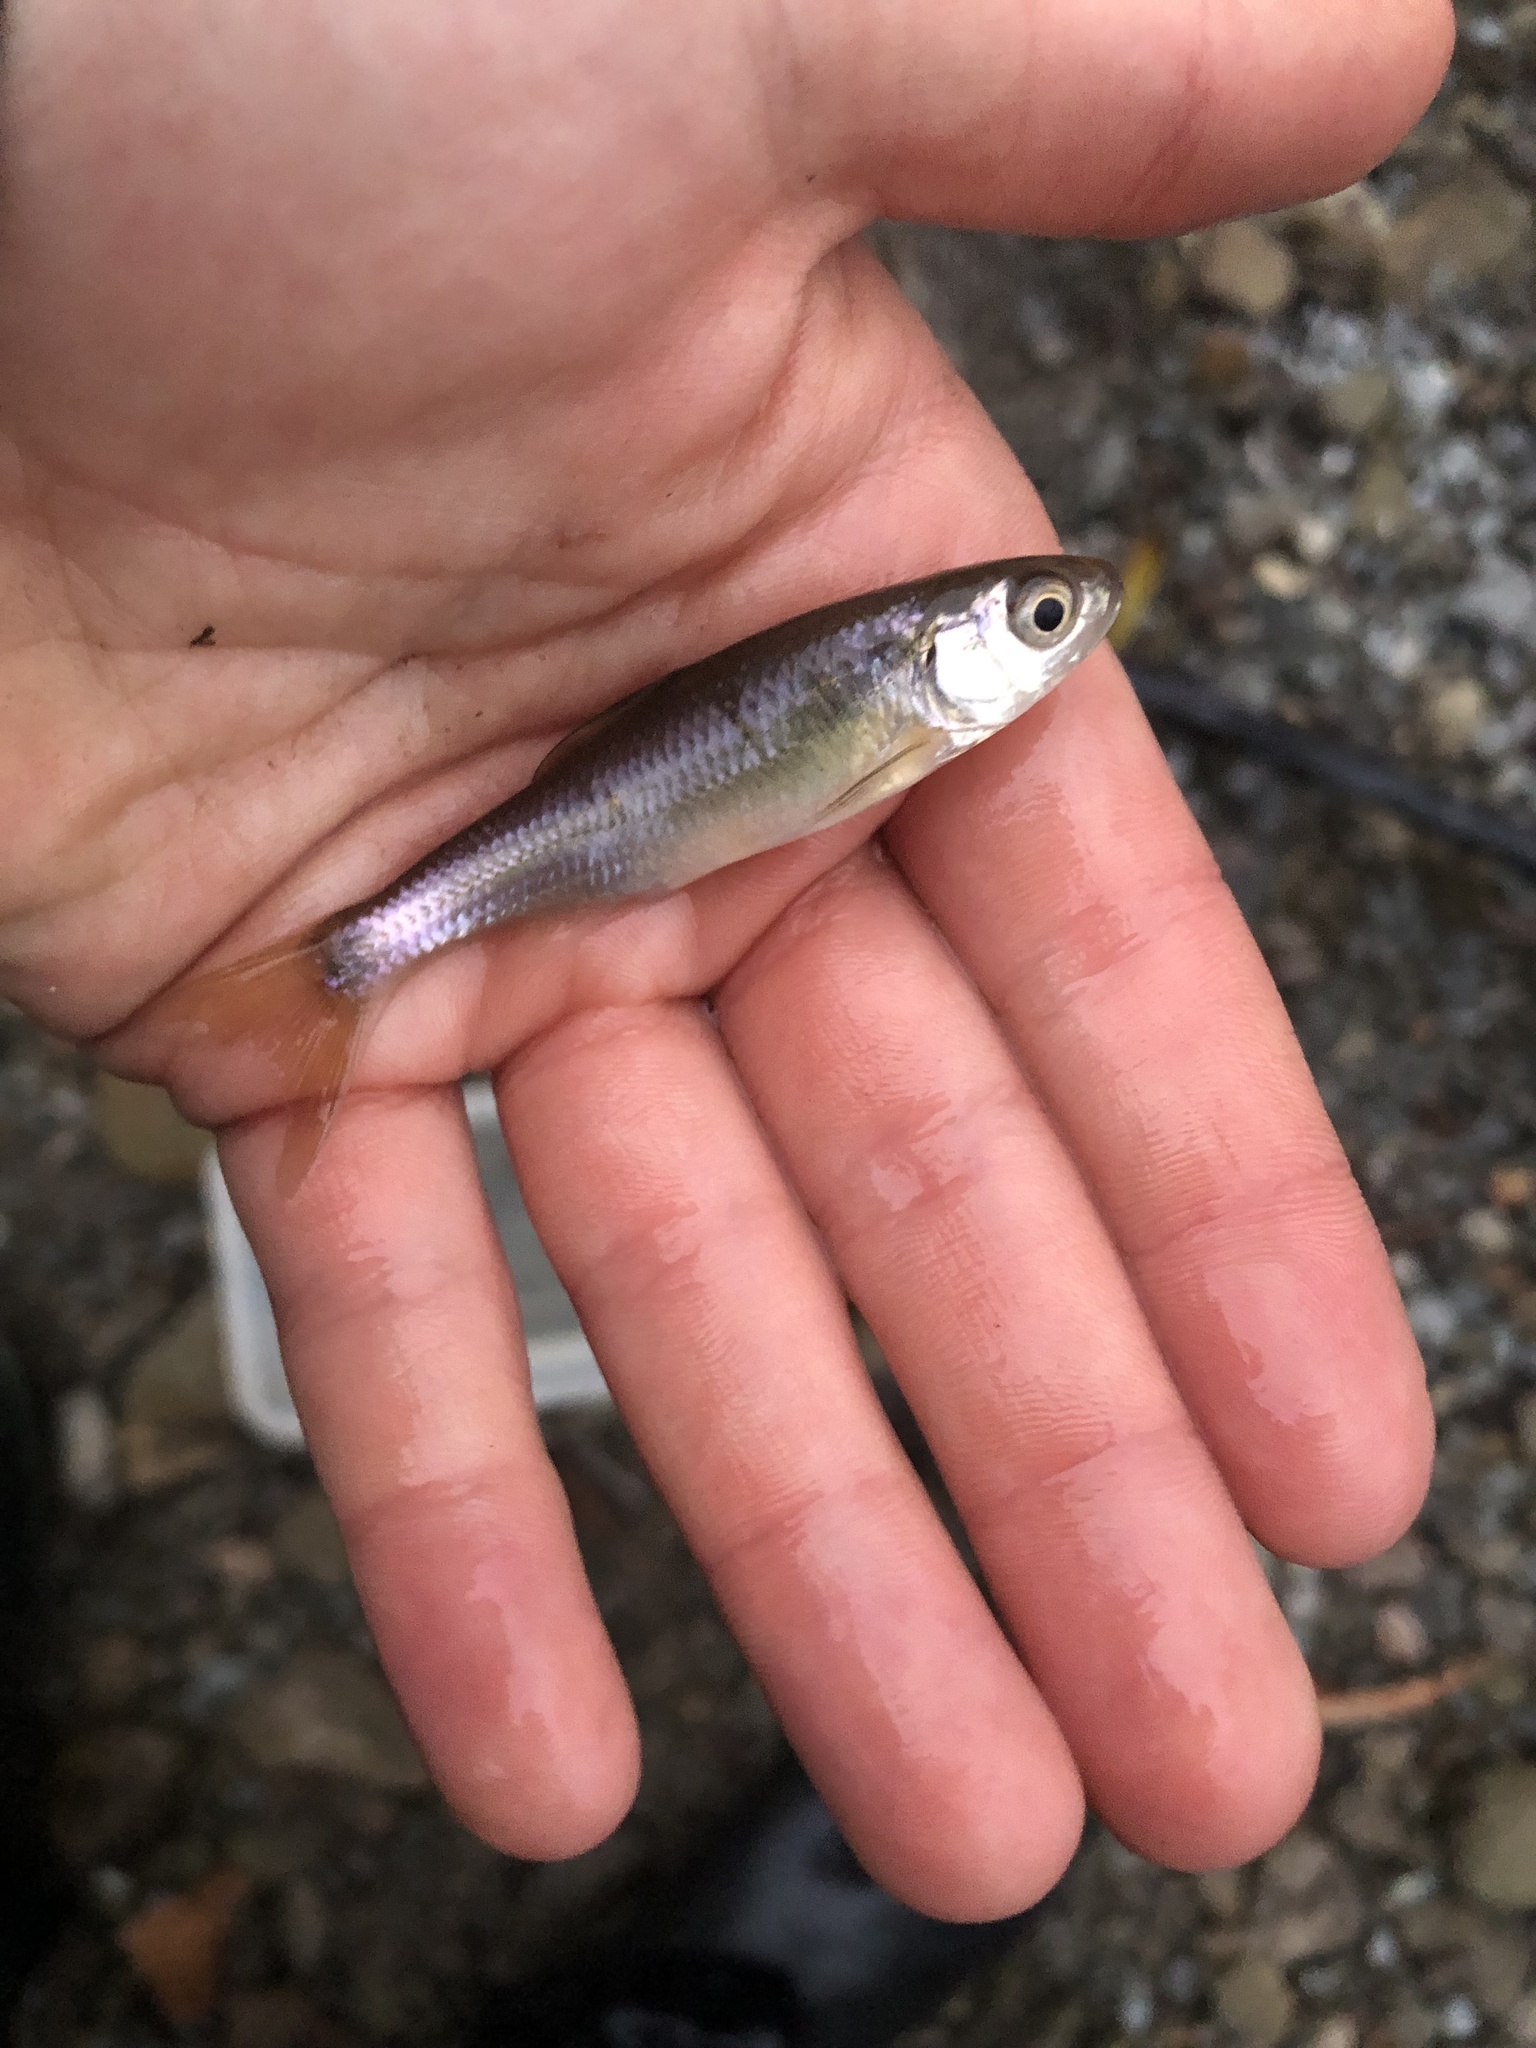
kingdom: Animalia
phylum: Chordata
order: Cypriniformes
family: Cyprinidae
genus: Luxilus
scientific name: Luxilus cornutus
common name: Common shiner
